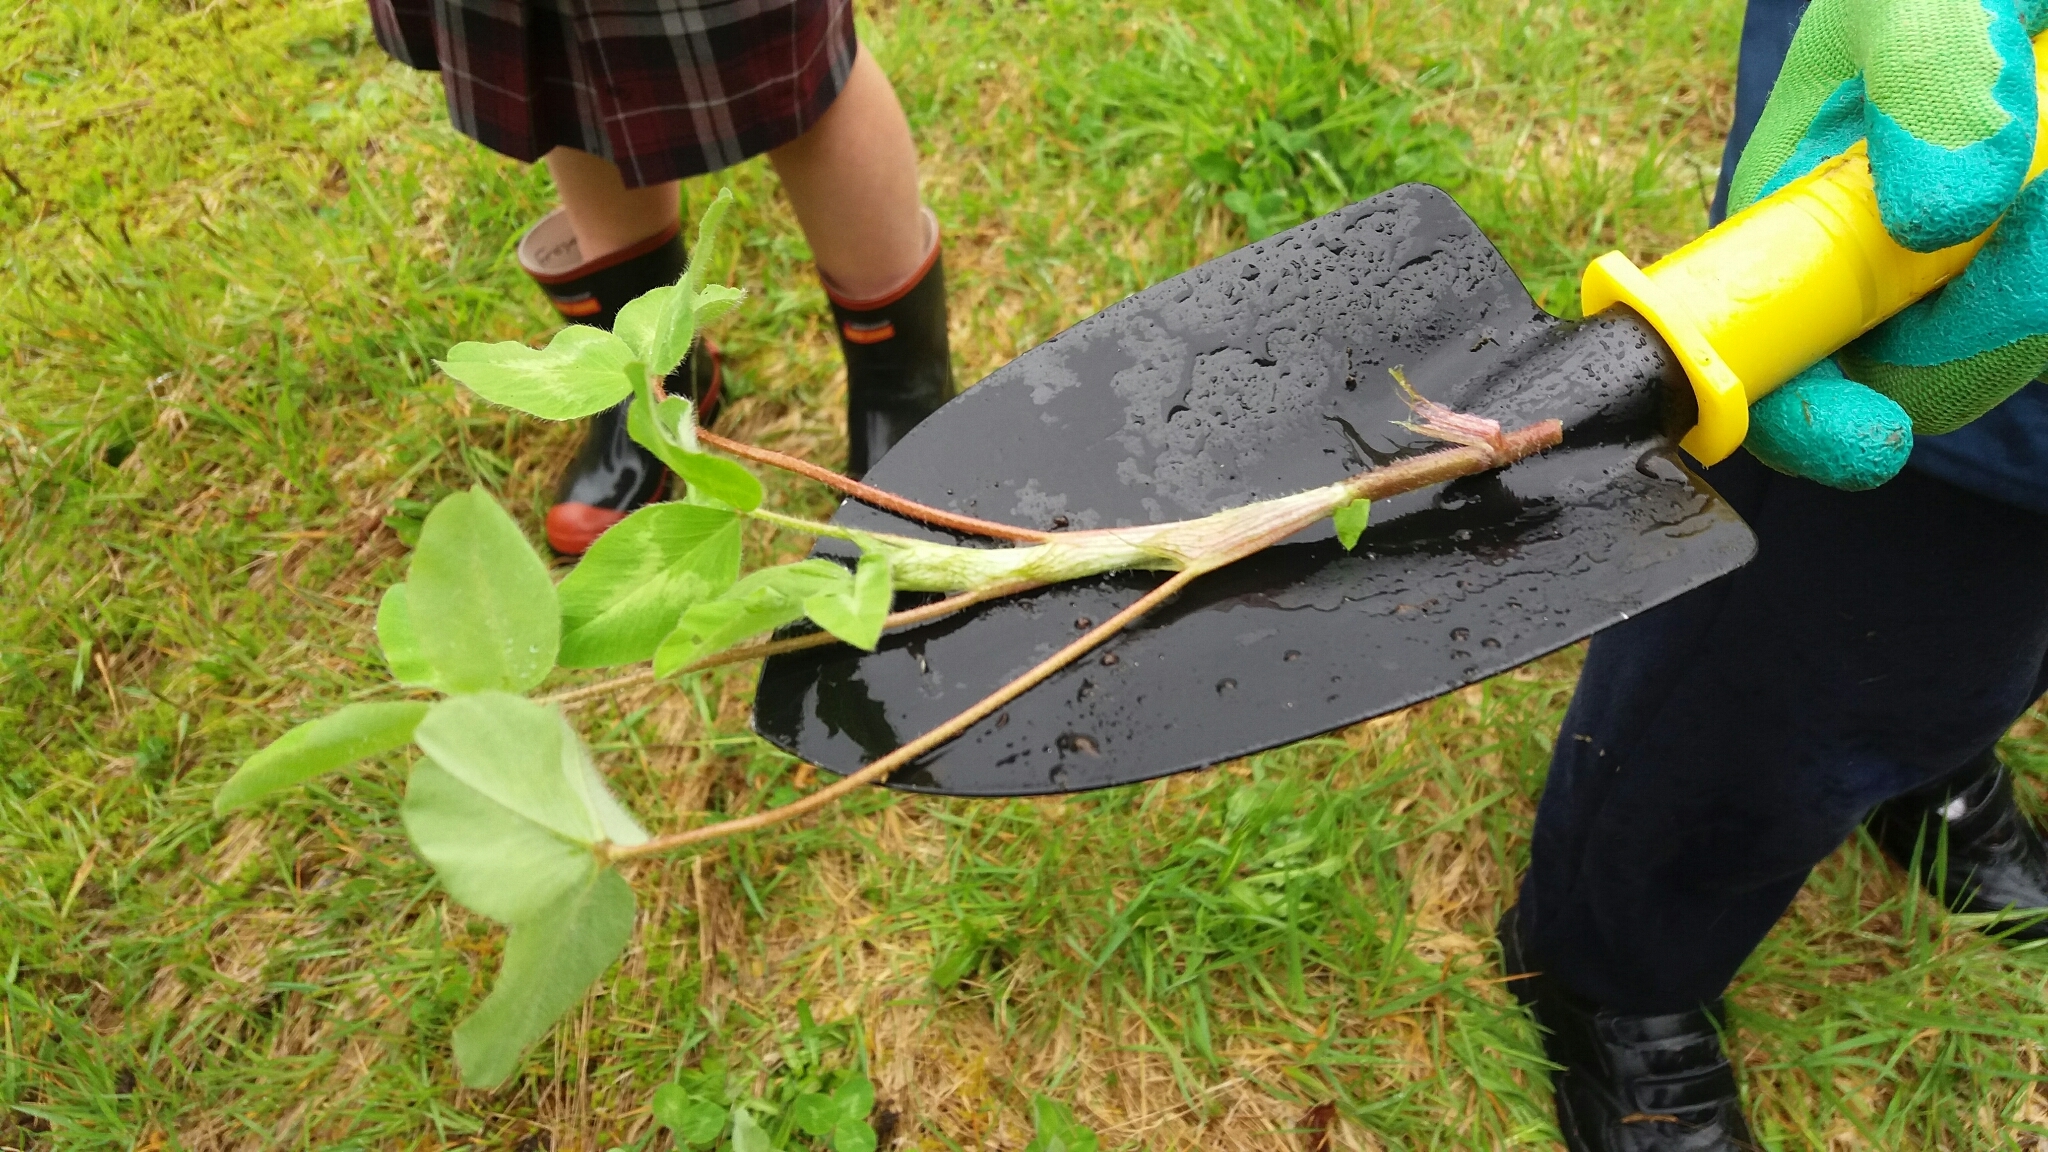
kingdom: Plantae
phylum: Tracheophyta
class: Magnoliopsida
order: Fabales
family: Fabaceae
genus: Trifolium
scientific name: Trifolium pratense
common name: Red clover
